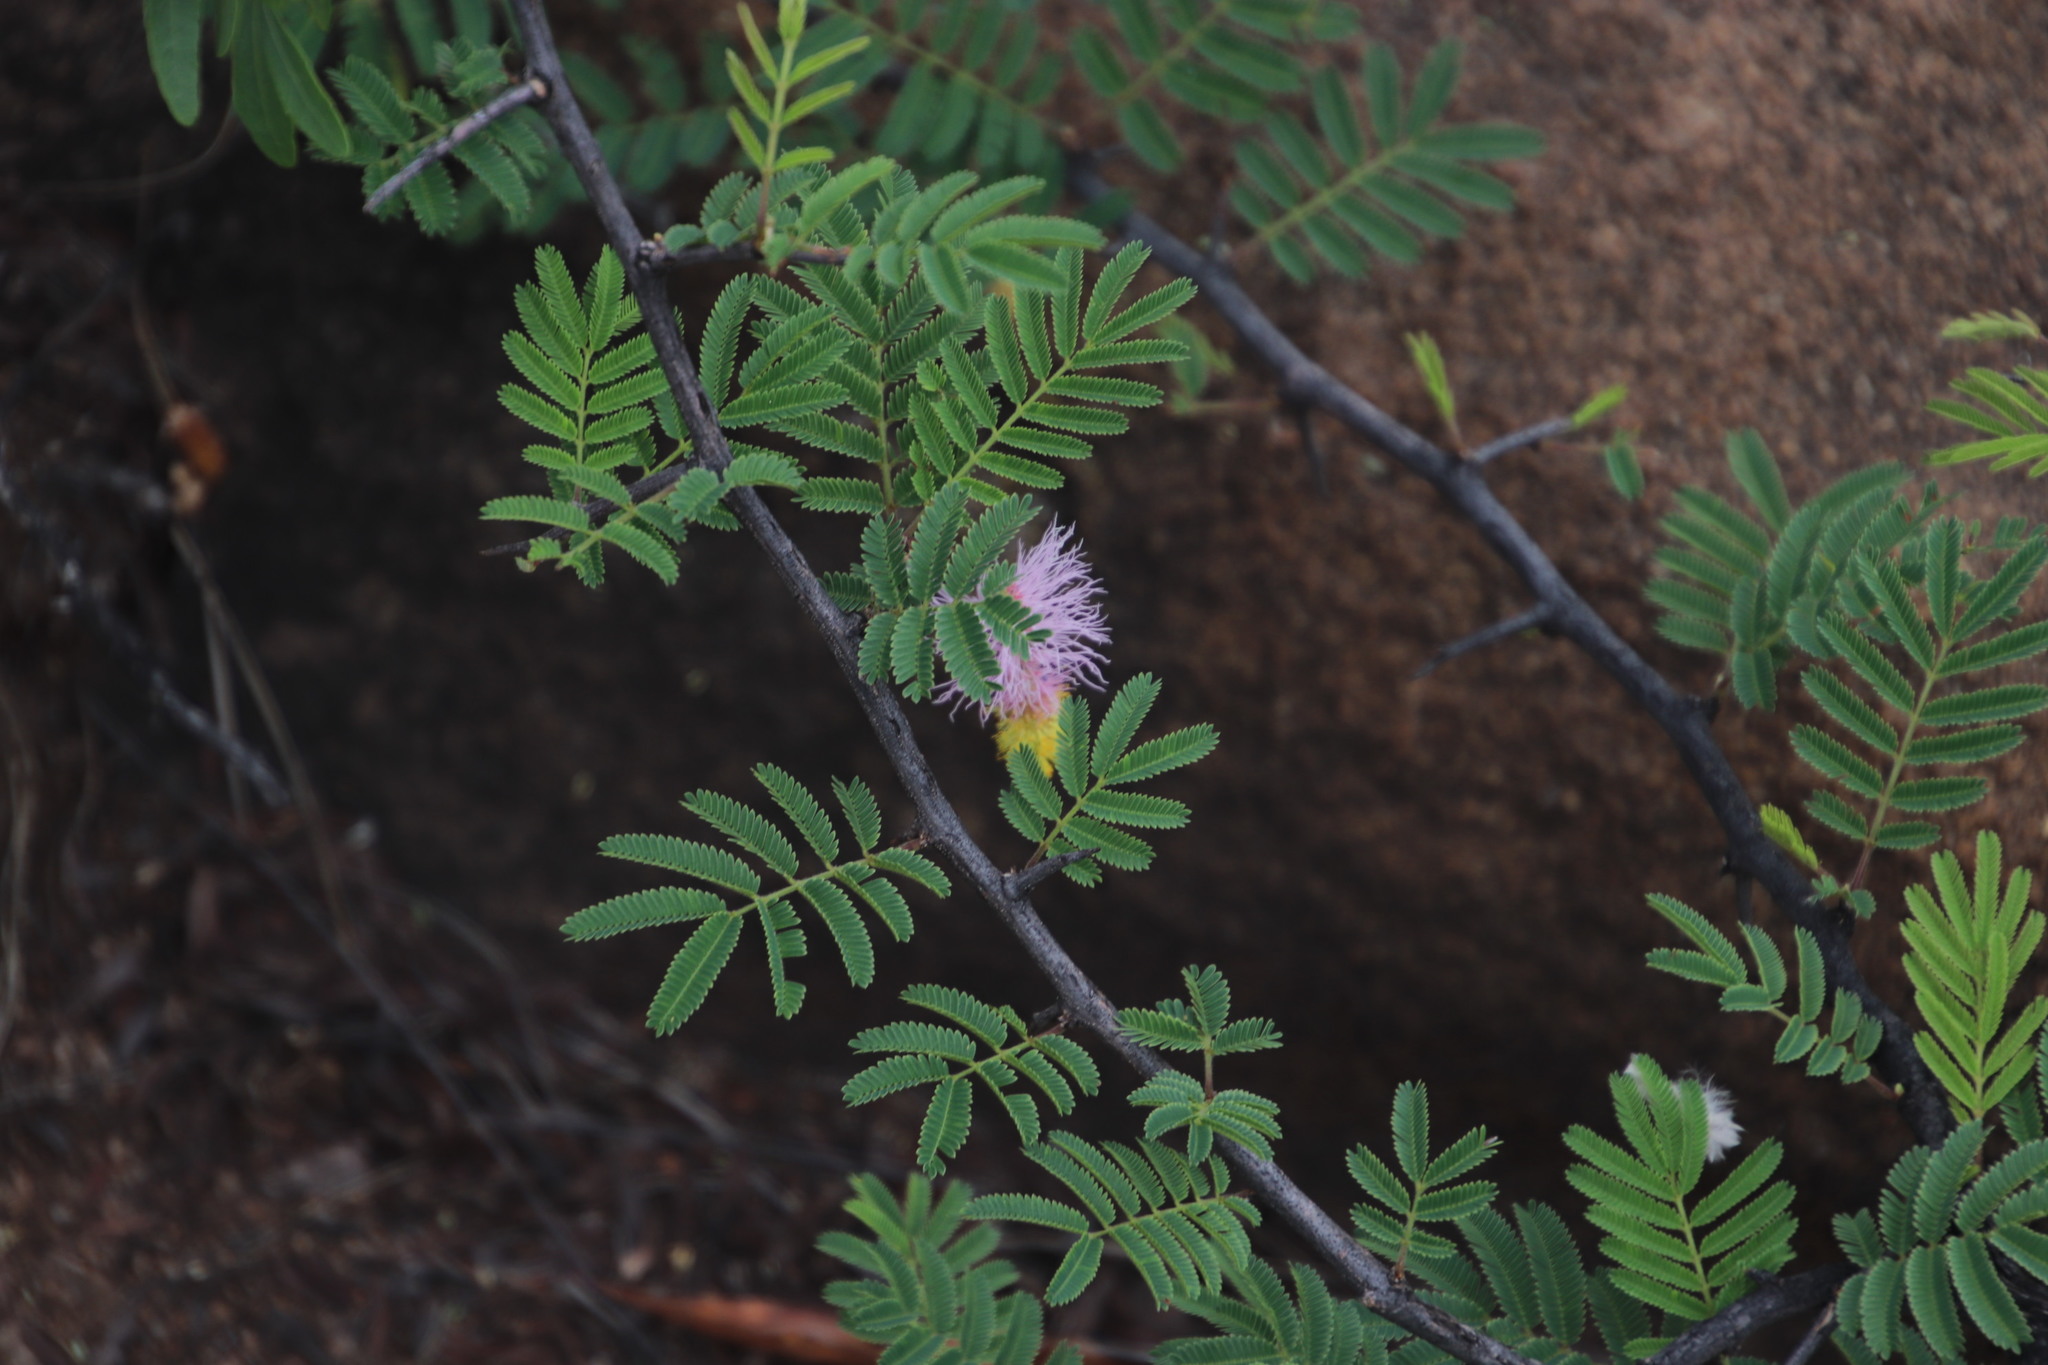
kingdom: Plantae
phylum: Tracheophyta
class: Magnoliopsida
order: Fabales
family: Fabaceae
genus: Dichrostachys
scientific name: Dichrostachys cinerea
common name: Sicklebush
